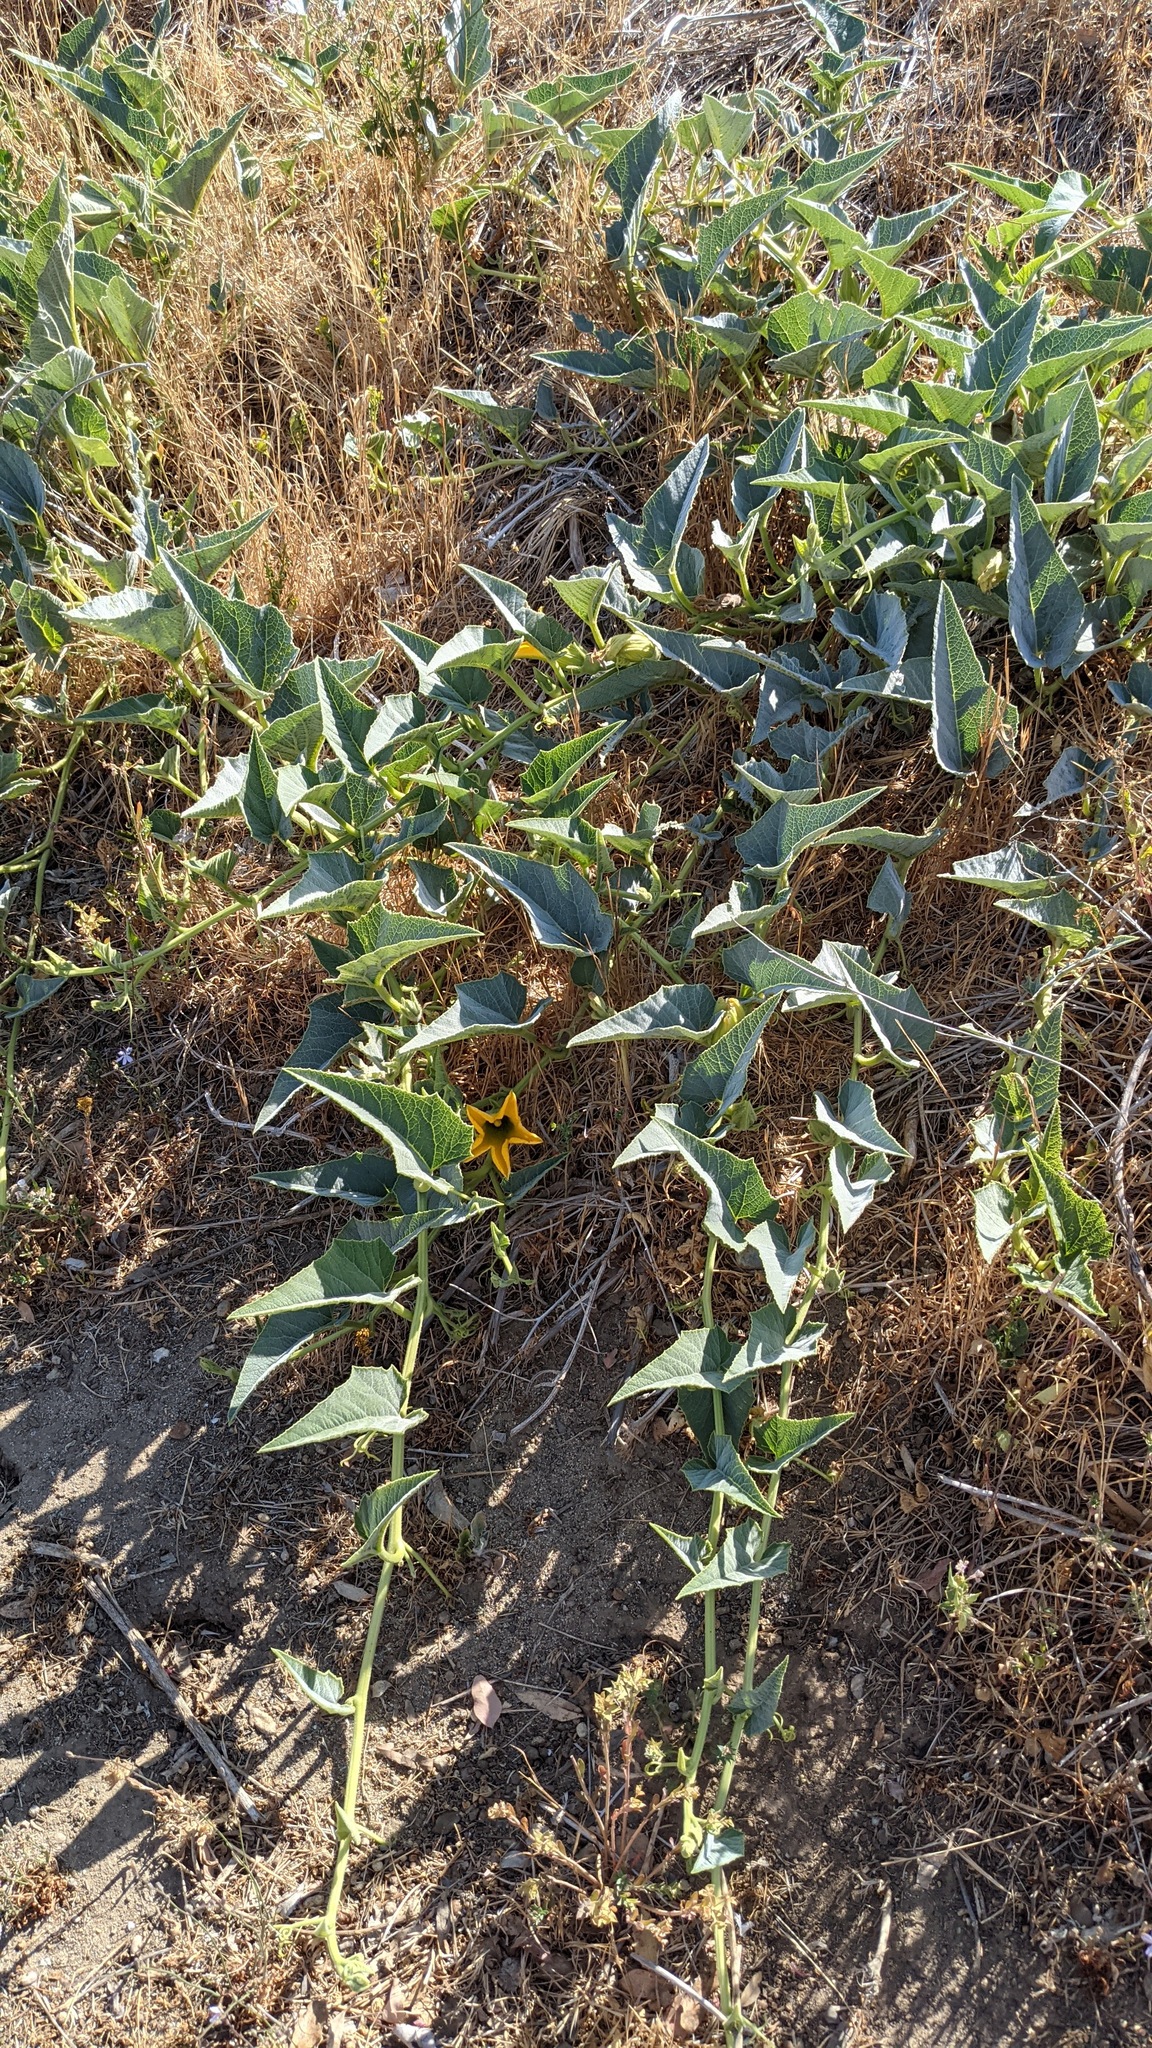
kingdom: Plantae
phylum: Tracheophyta
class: Magnoliopsida
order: Cucurbitales
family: Cucurbitaceae
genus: Cucurbita
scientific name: Cucurbita foetidissima
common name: Buffalo gourd
